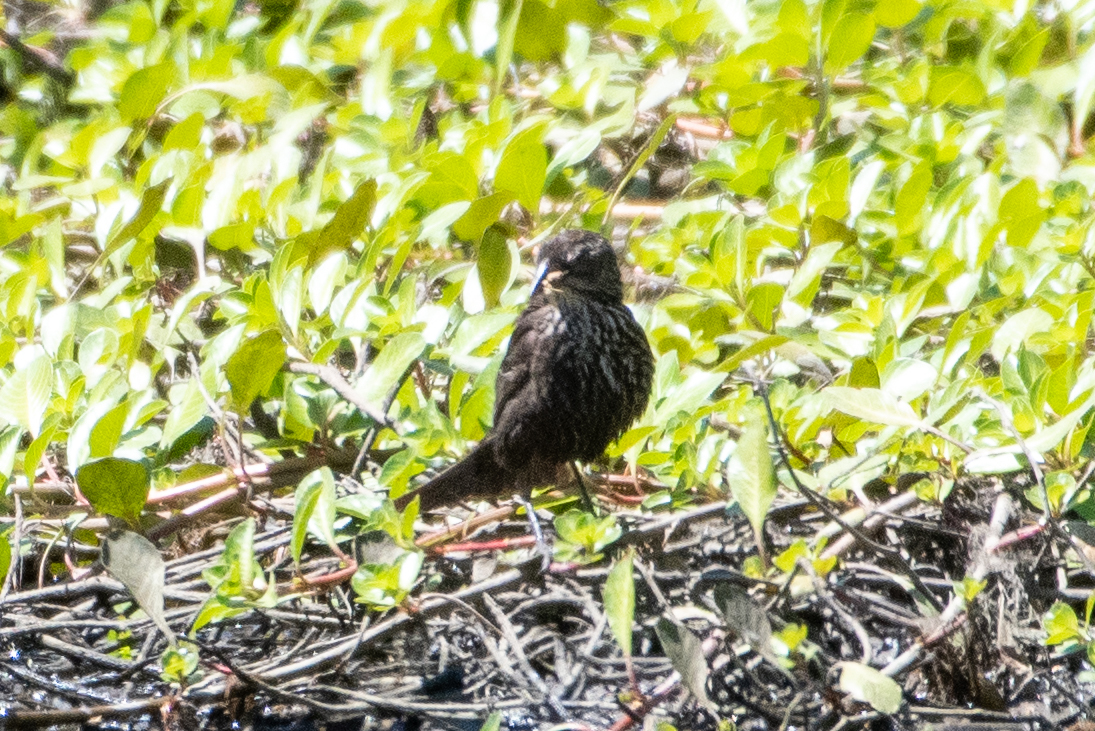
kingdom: Animalia
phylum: Chordata
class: Aves
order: Passeriformes
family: Icteridae
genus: Agelaius
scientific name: Agelaius phoeniceus
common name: Red-winged blackbird
